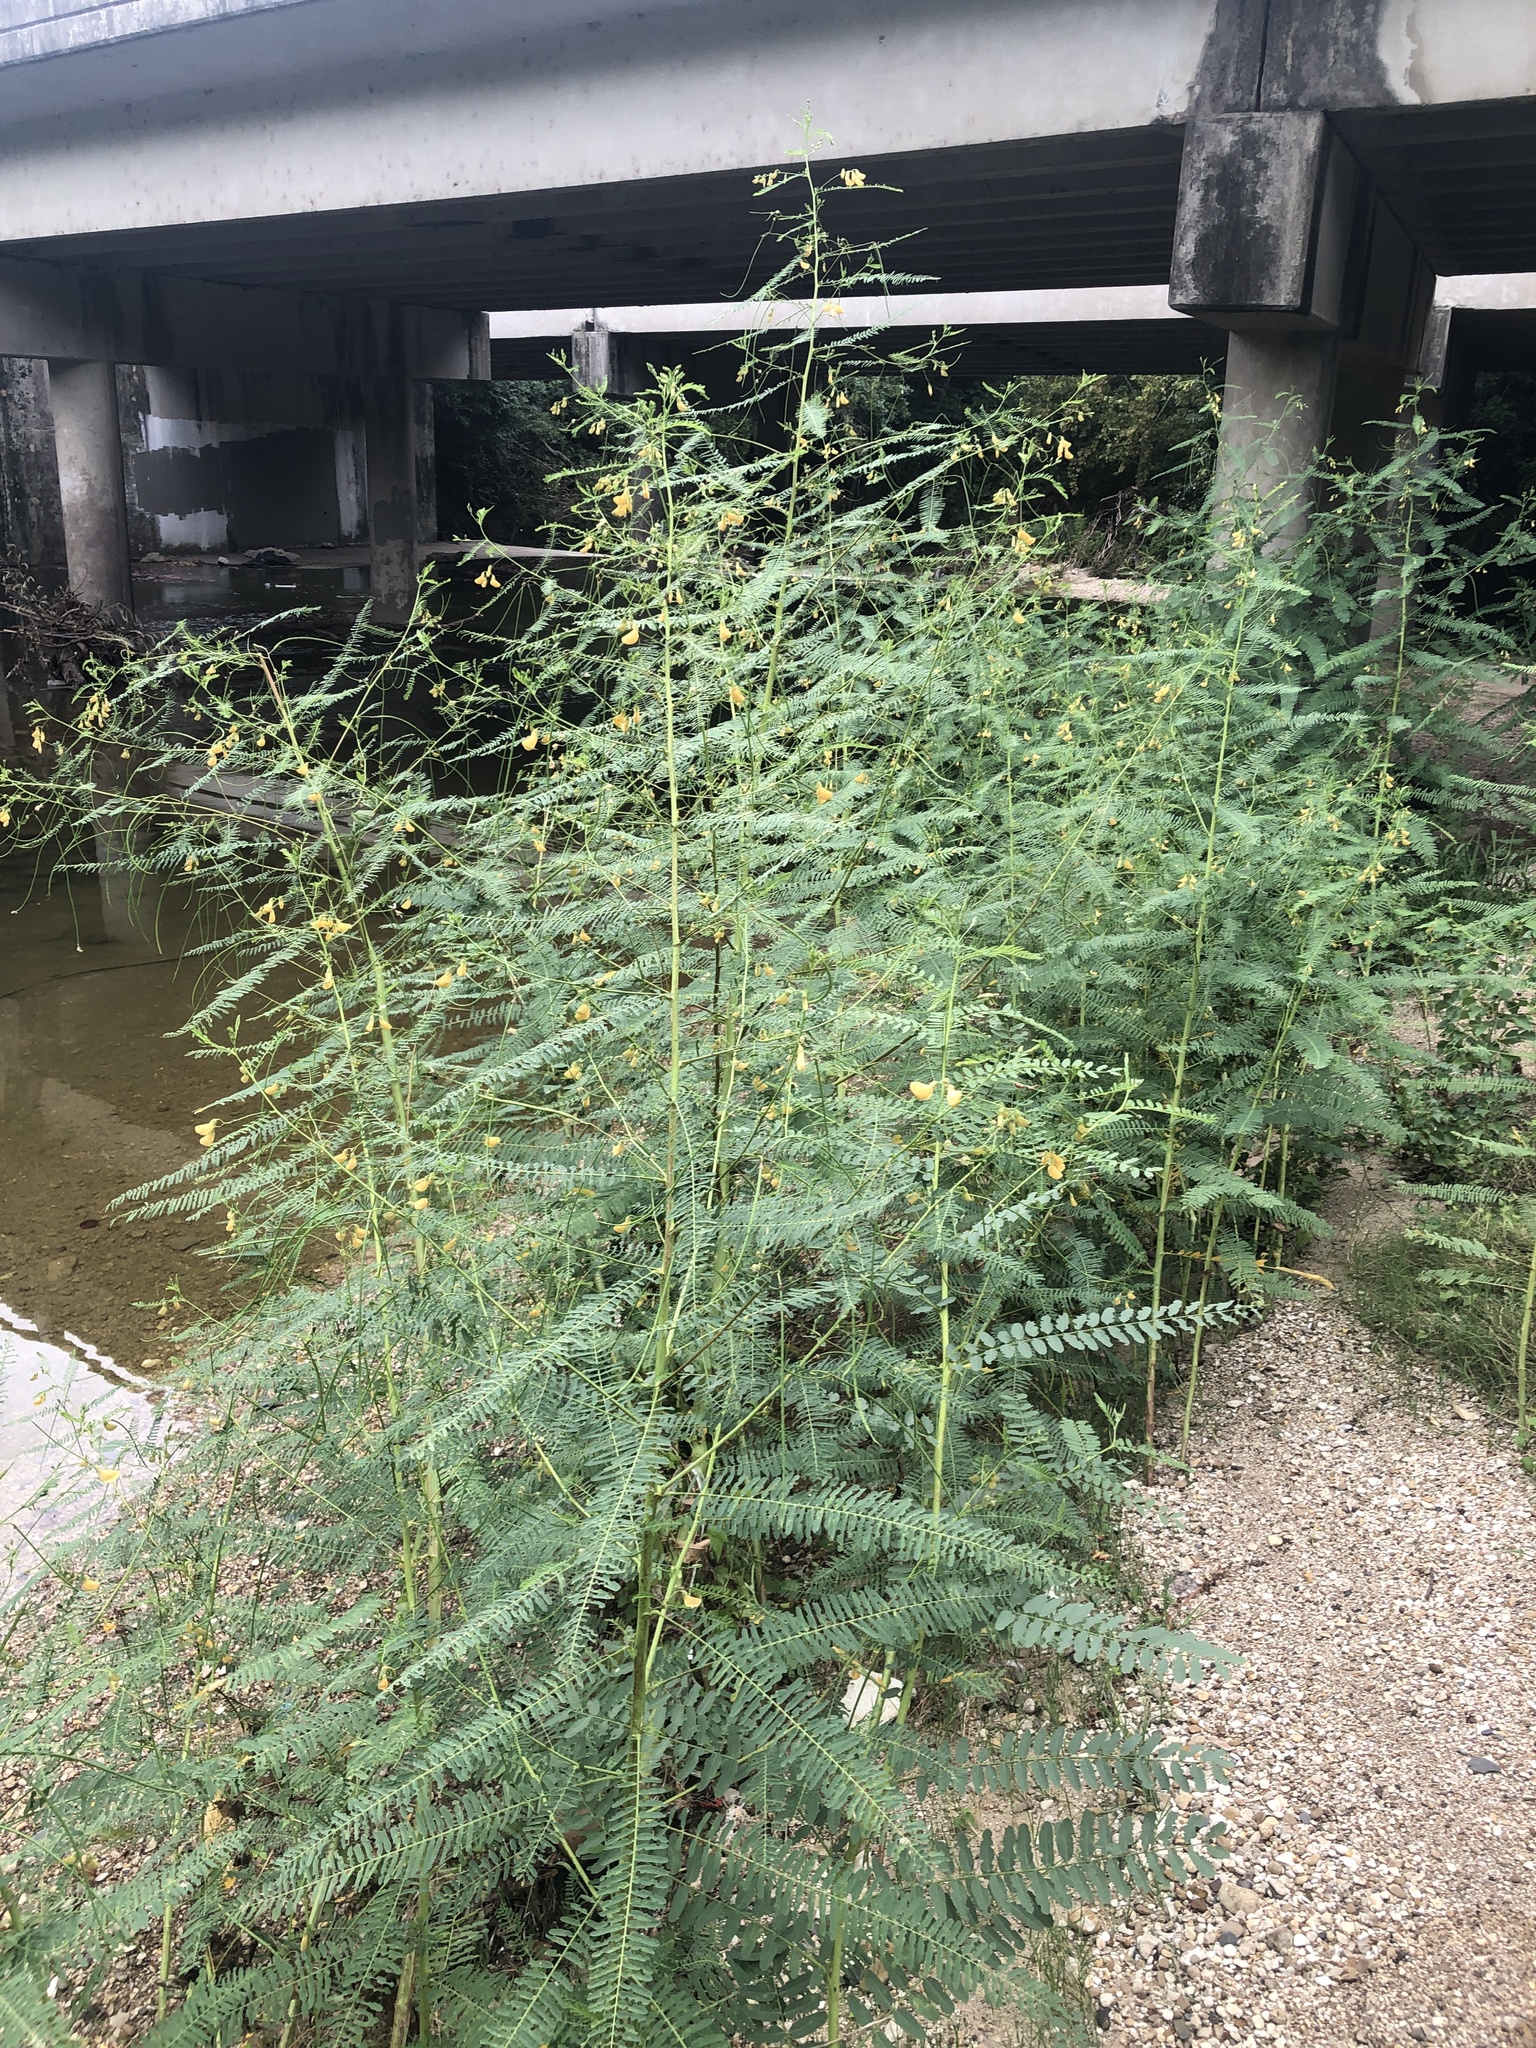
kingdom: Plantae
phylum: Tracheophyta
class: Magnoliopsida
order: Fabales
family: Fabaceae
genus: Sesbania
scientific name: Sesbania herbacea
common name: Bigpod sesbania
